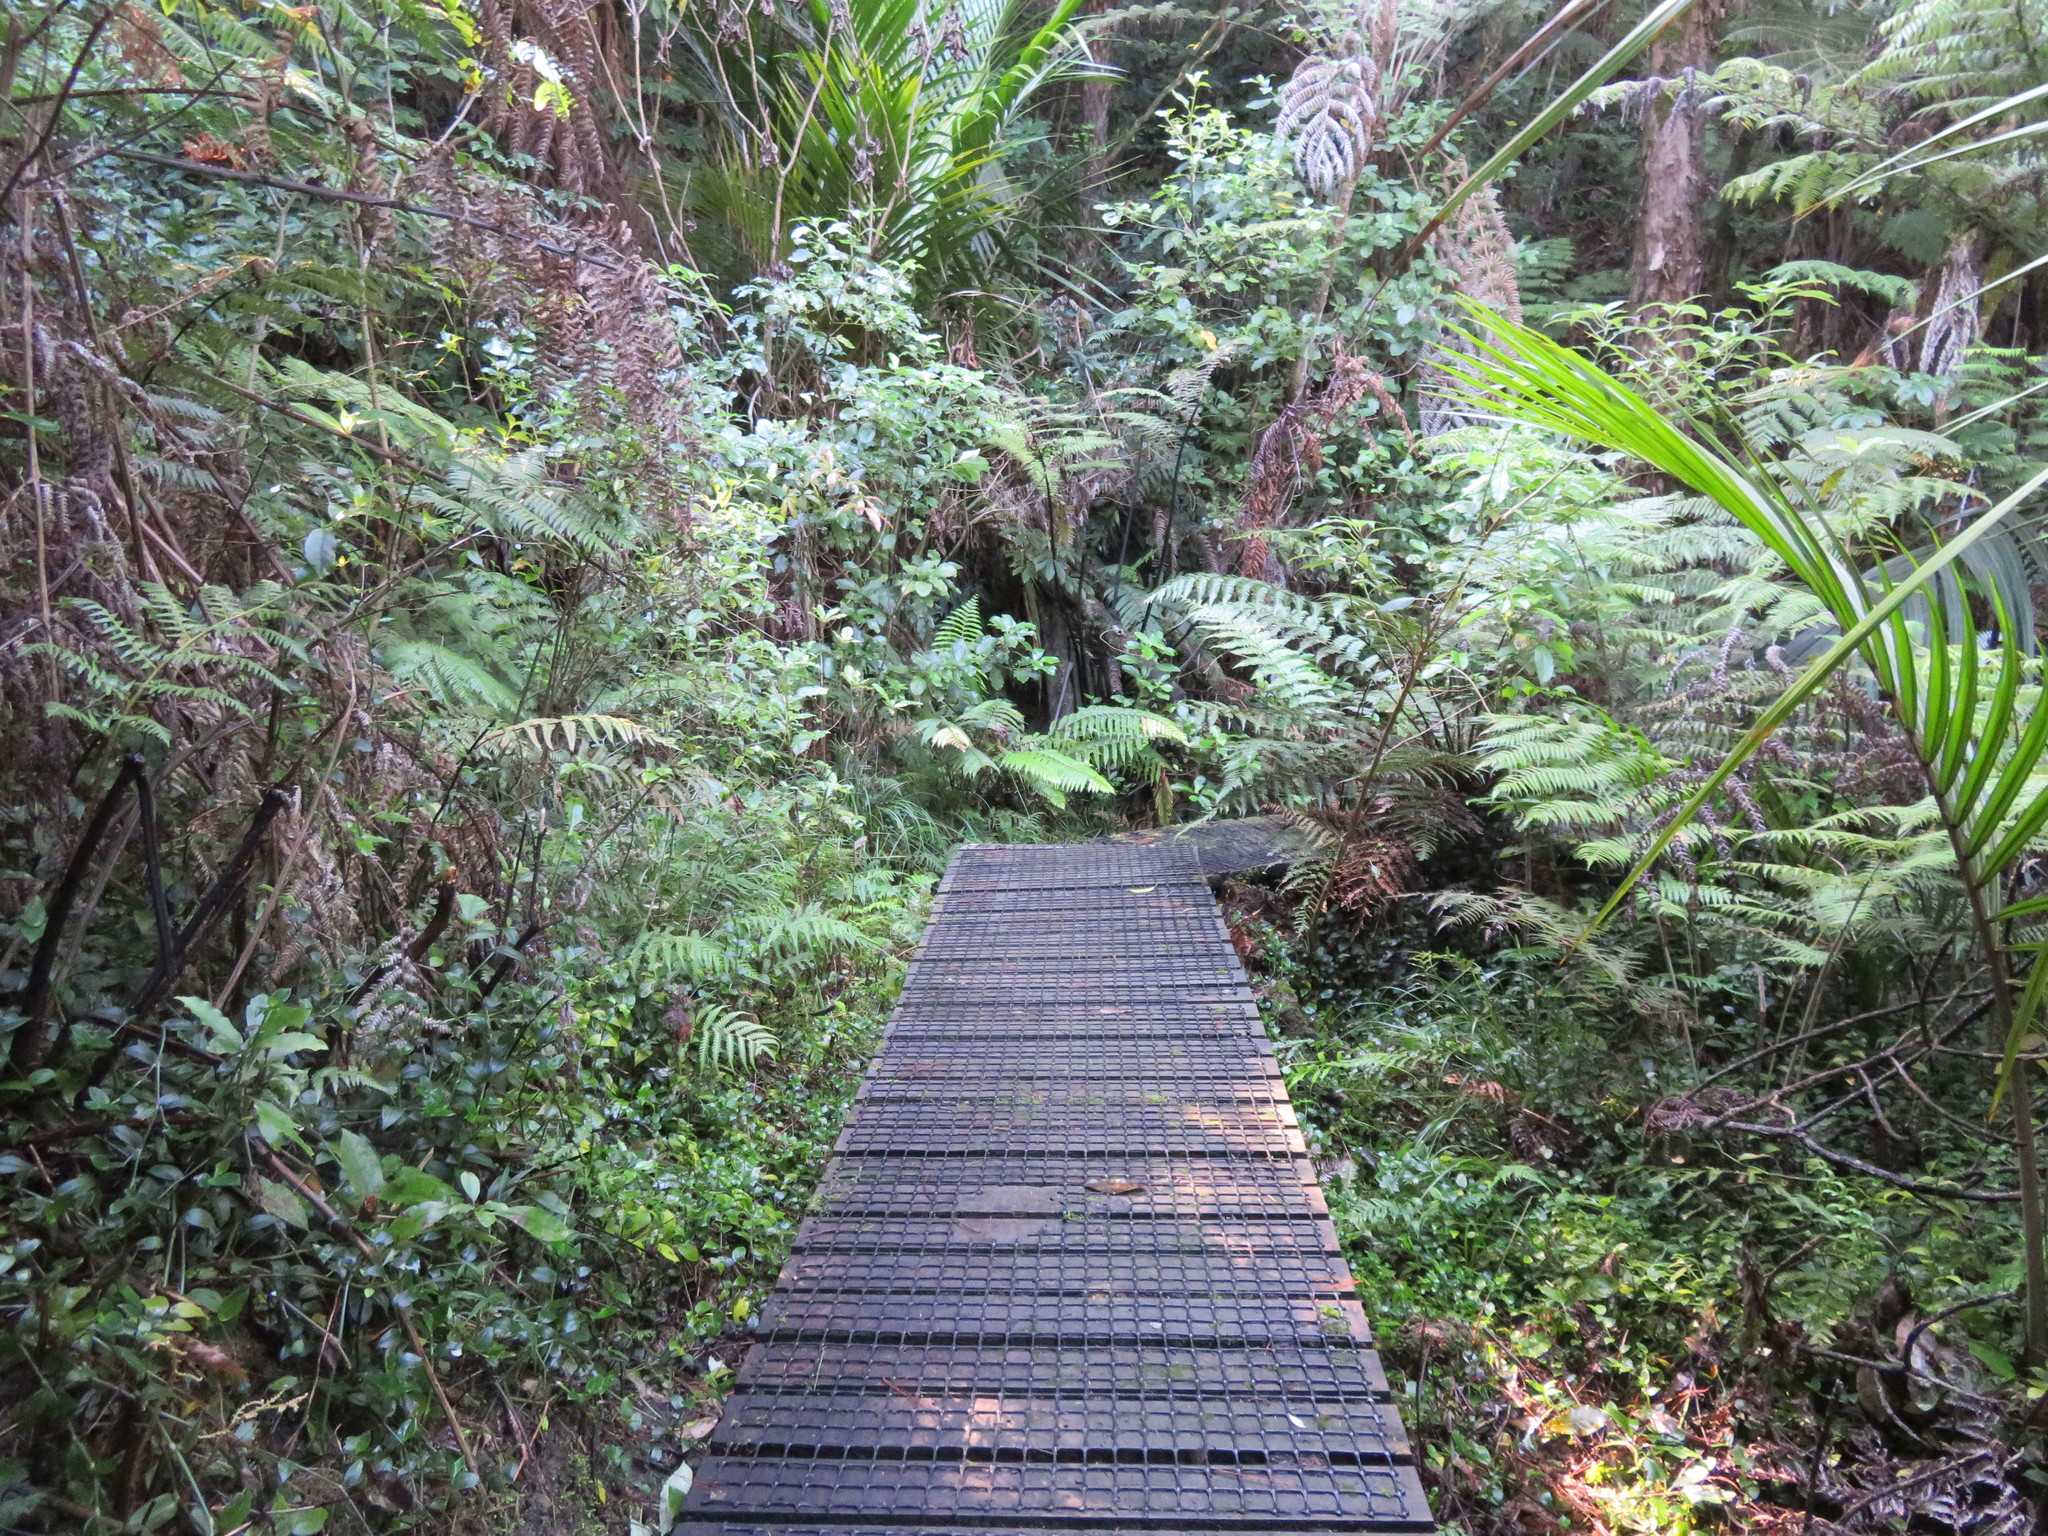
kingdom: Plantae
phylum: Tracheophyta
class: Liliopsida
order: Commelinales
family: Commelinaceae
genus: Tradescantia
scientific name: Tradescantia fluminensis
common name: Wandering-jew
